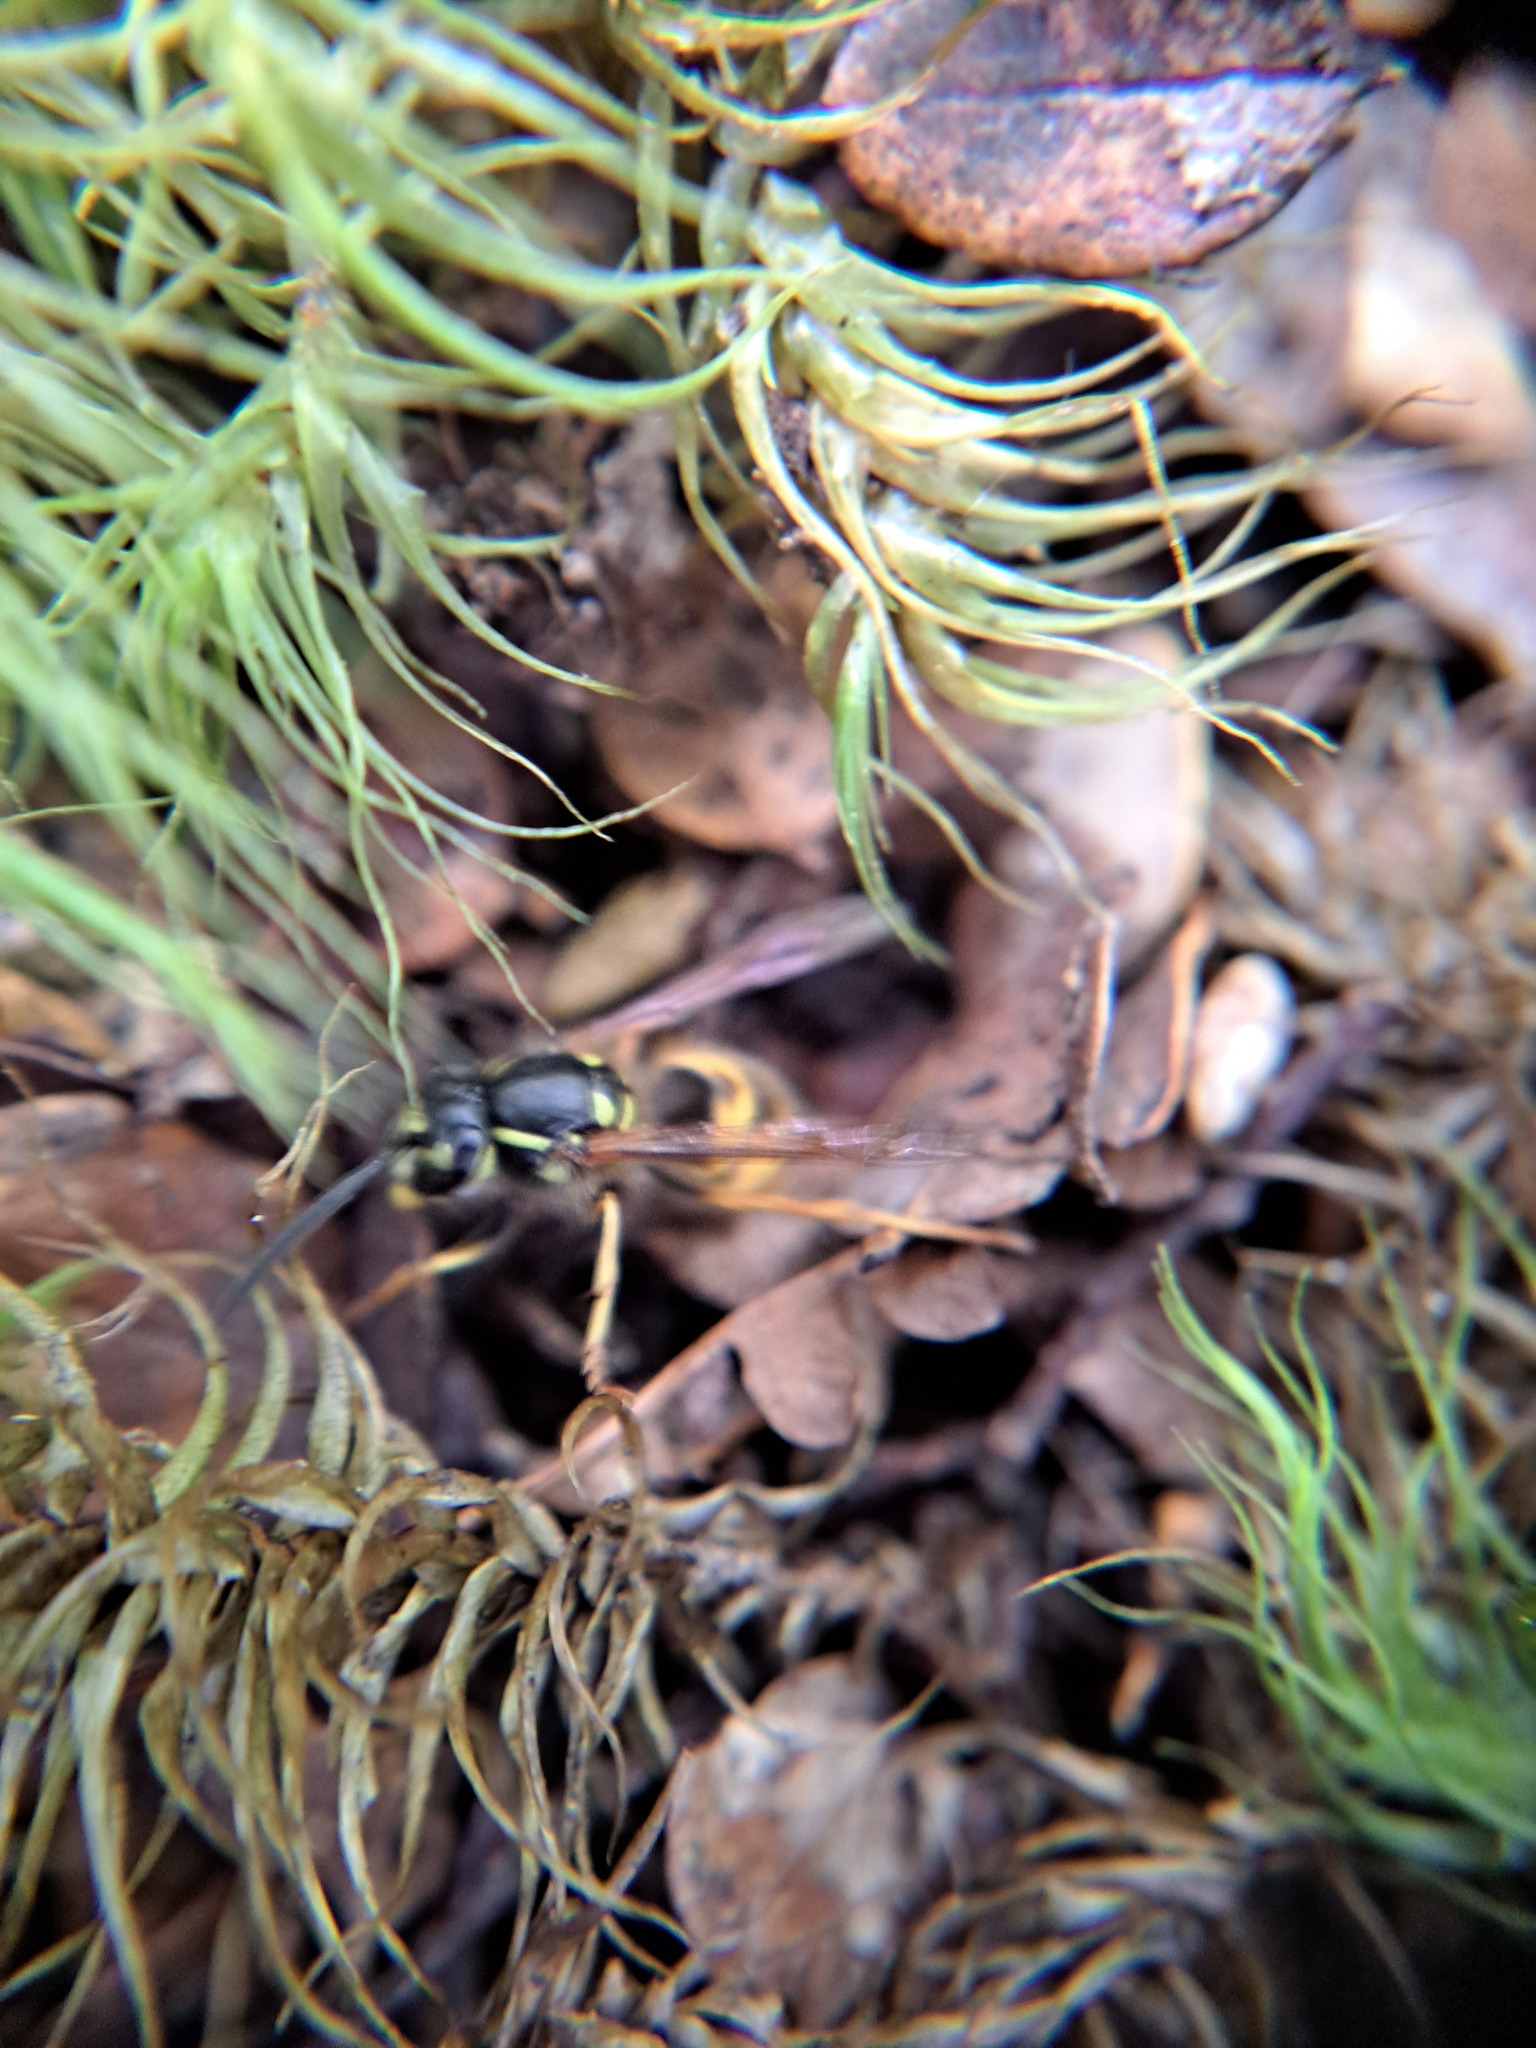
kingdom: Animalia
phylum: Arthropoda
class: Insecta
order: Hymenoptera
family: Vespidae
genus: Vespula
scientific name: Vespula vulgaris
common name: Common wasp
